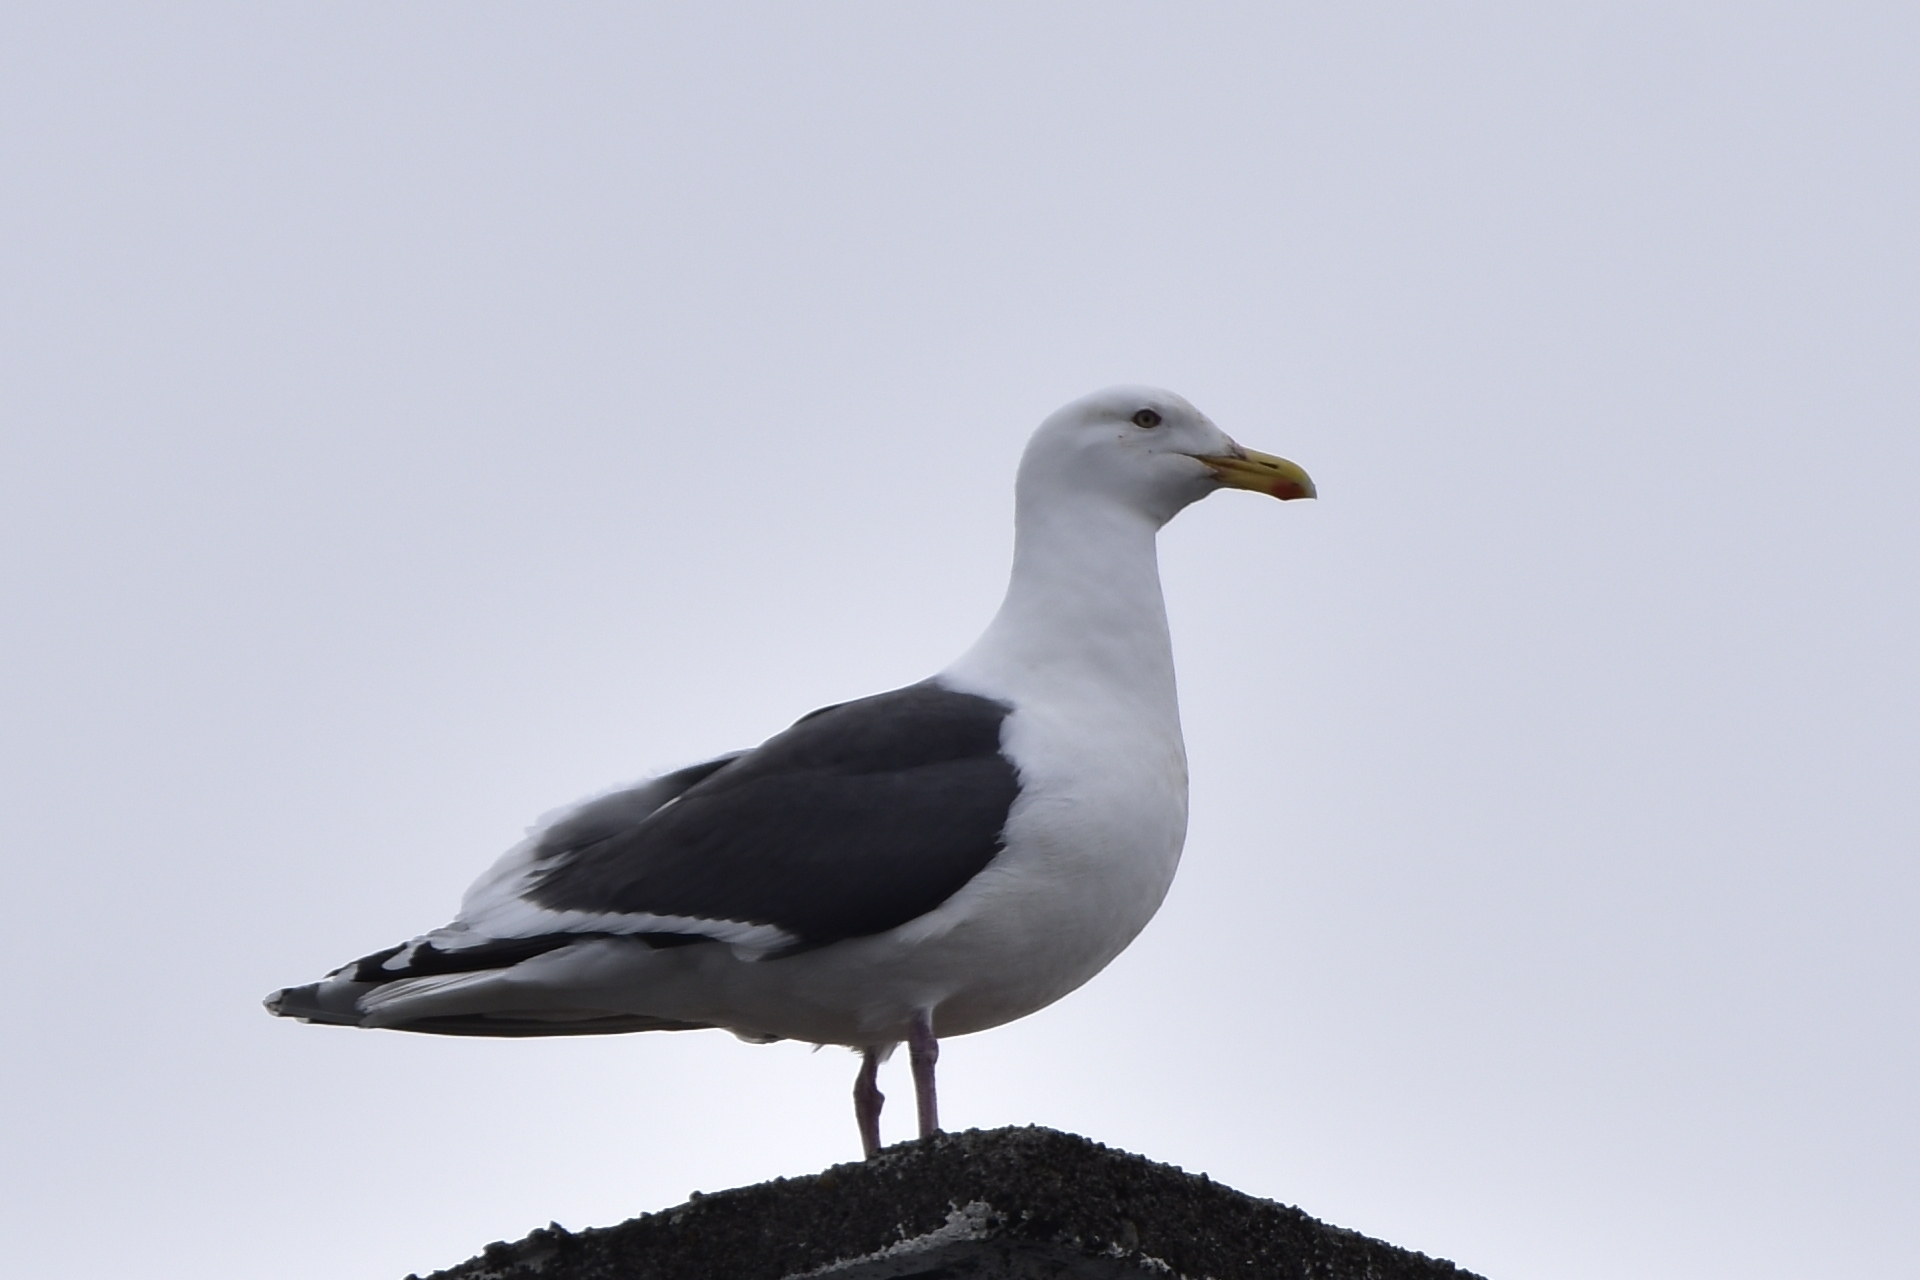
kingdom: Animalia
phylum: Chordata
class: Aves
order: Charadriiformes
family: Laridae
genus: Larus
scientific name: Larus schistisagus
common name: Slaty-backed gull
